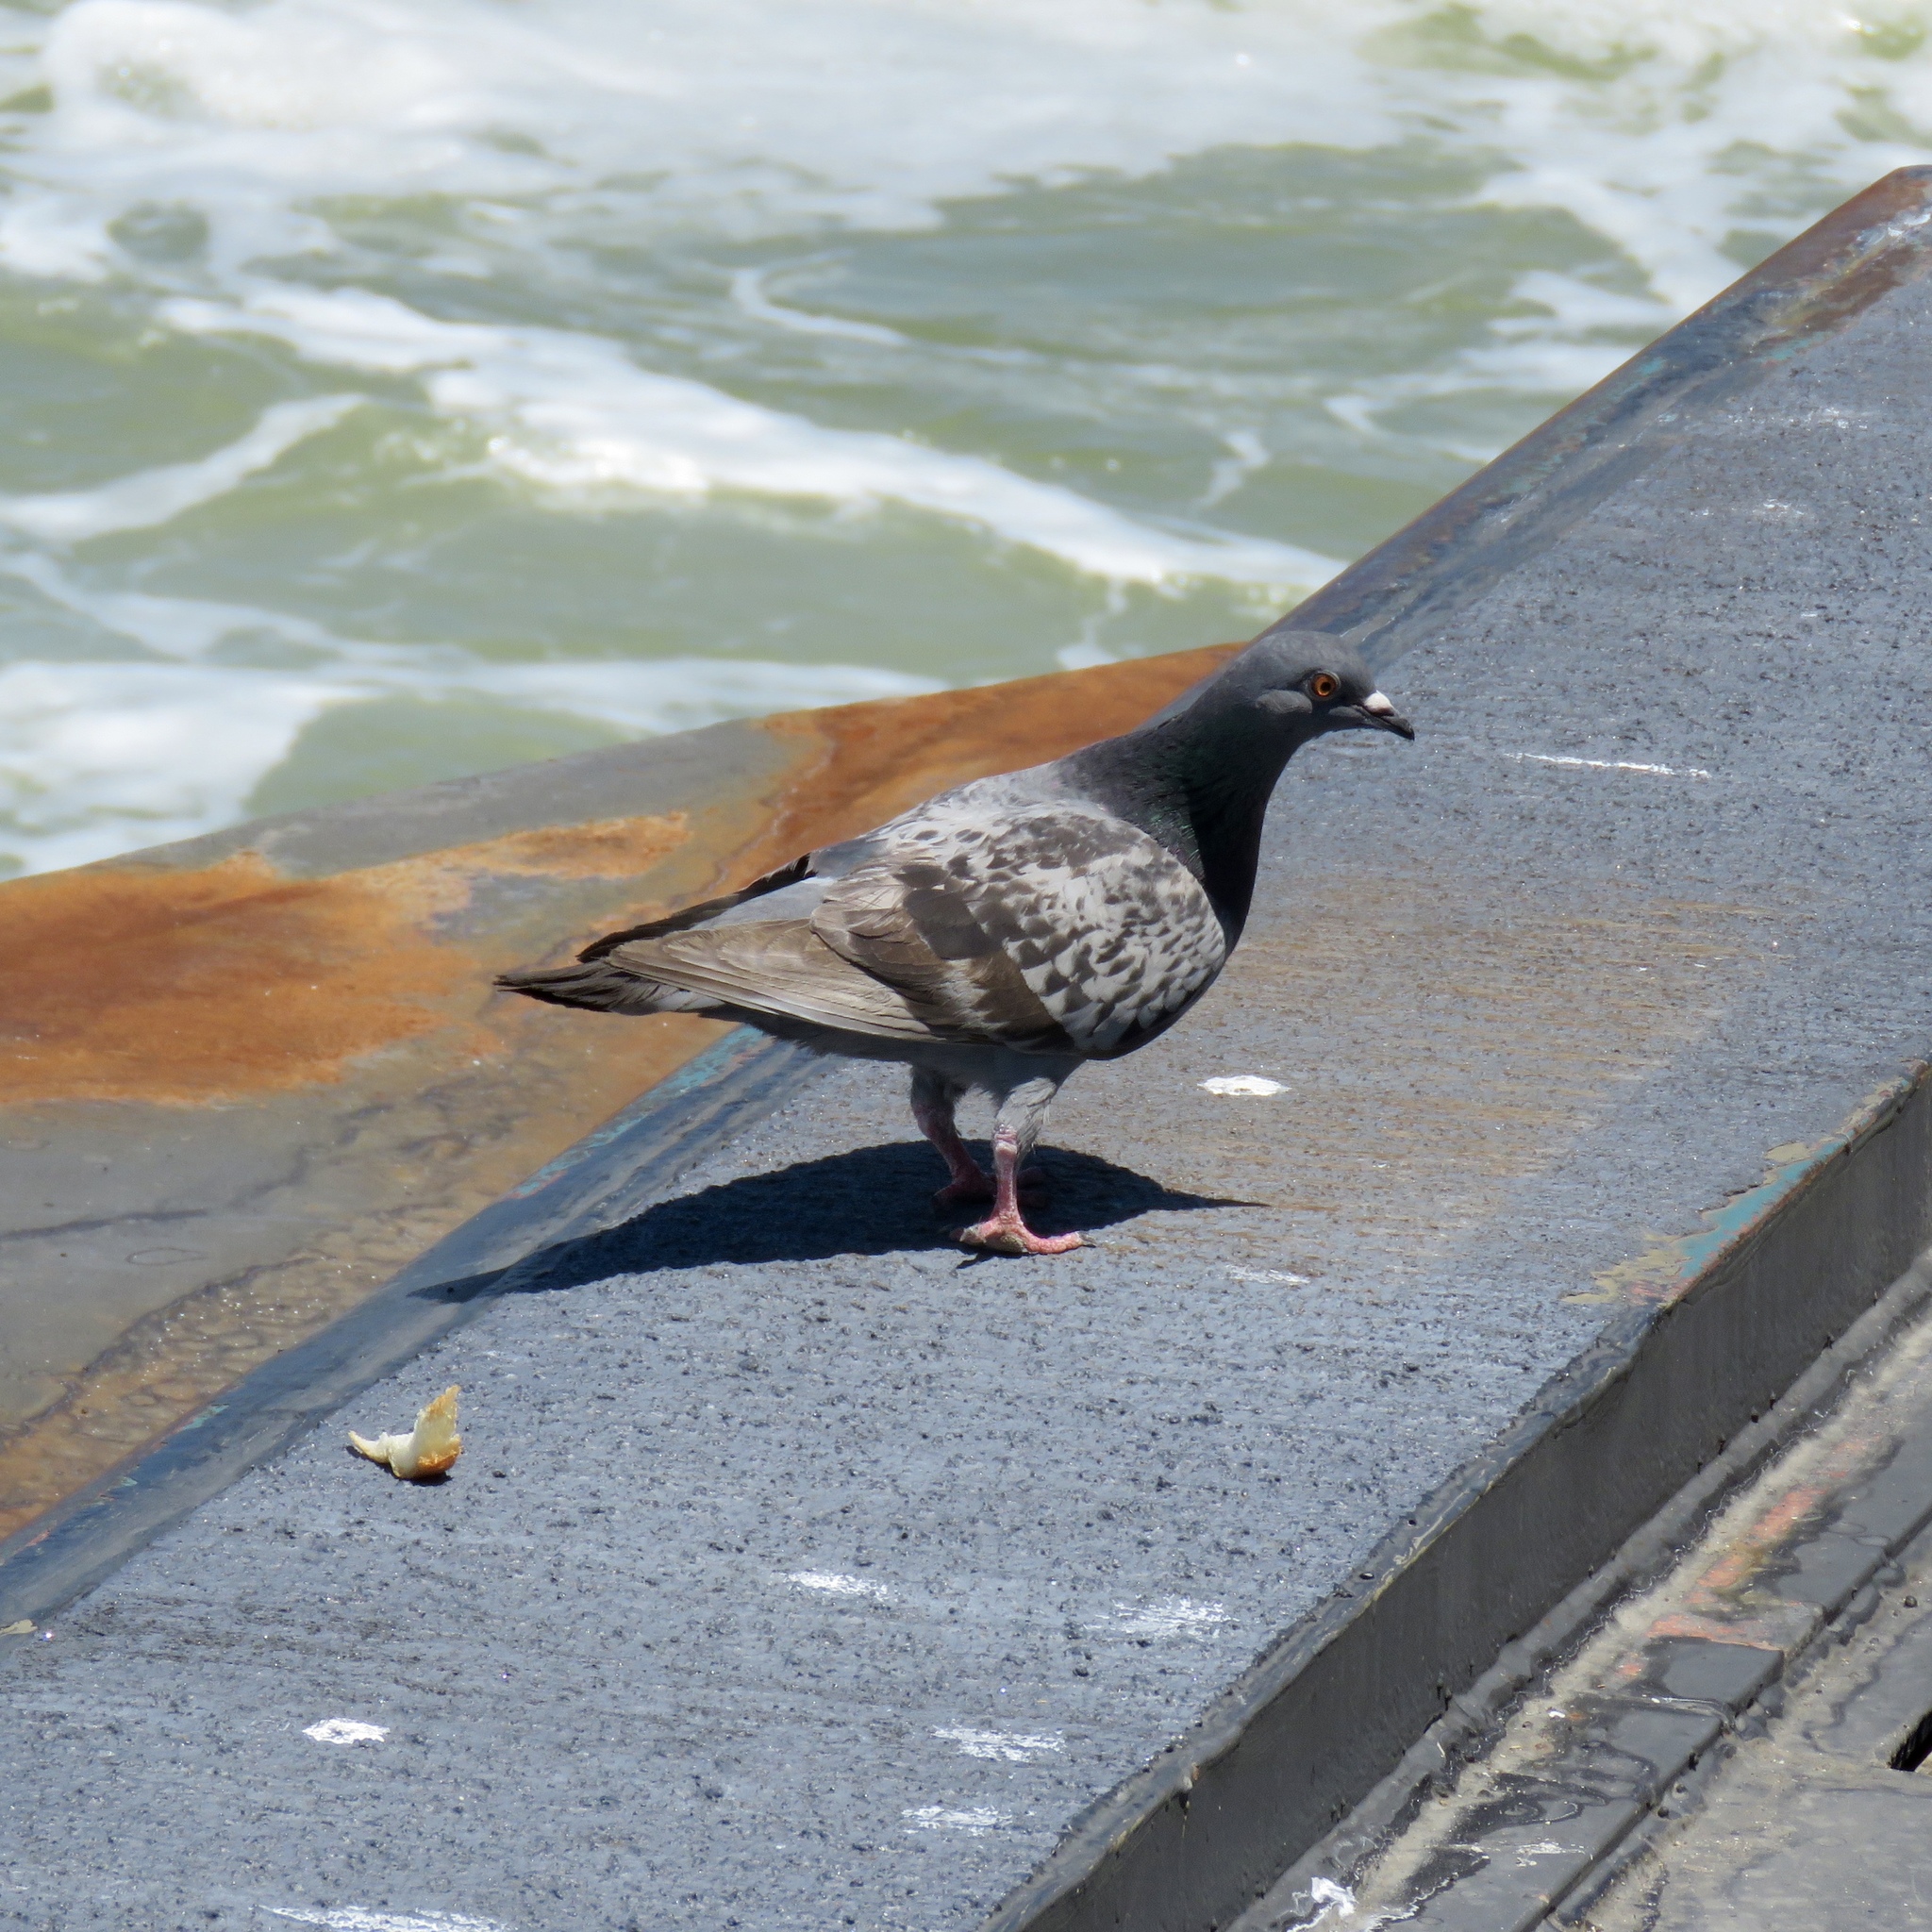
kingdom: Animalia
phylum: Chordata
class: Aves
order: Columbiformes
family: Columbidae
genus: Columba
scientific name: Columba livia
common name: Rock pigeon
